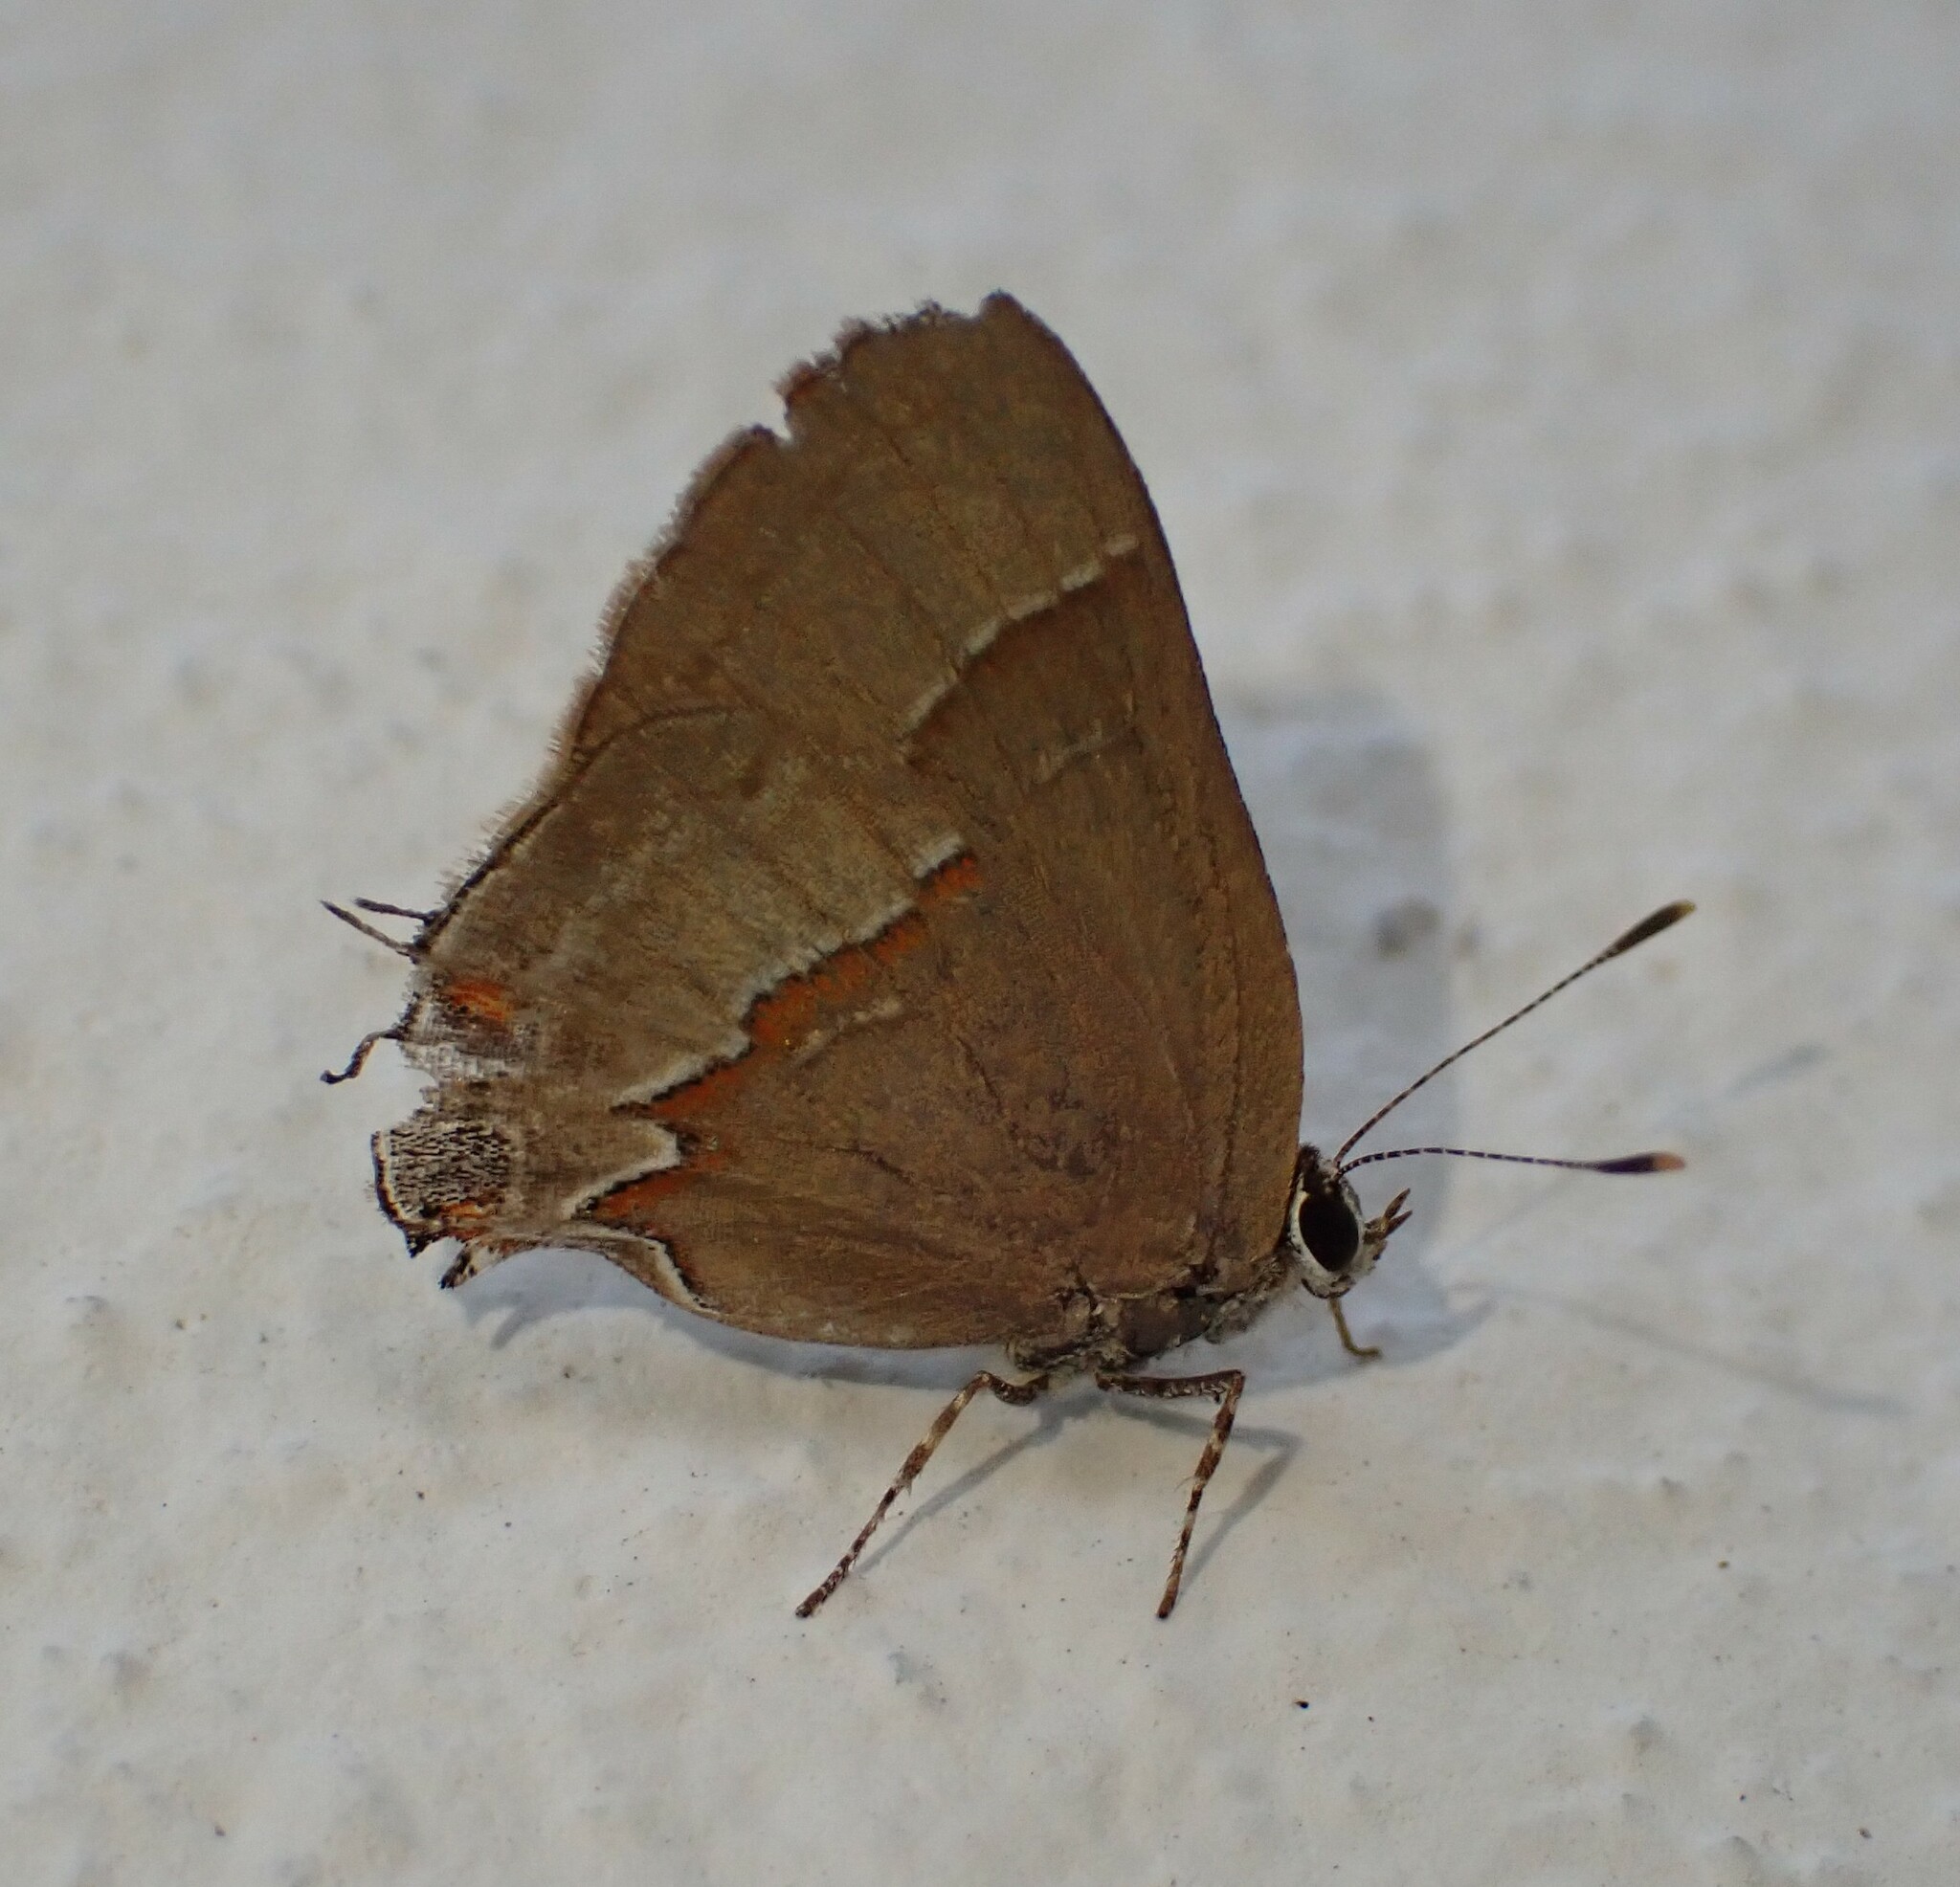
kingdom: Animalia
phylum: Arthropoda
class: Insecta
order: Lepidoptera
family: Lycaenidae
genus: Arzecla
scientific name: Arzecla tucumanensis
